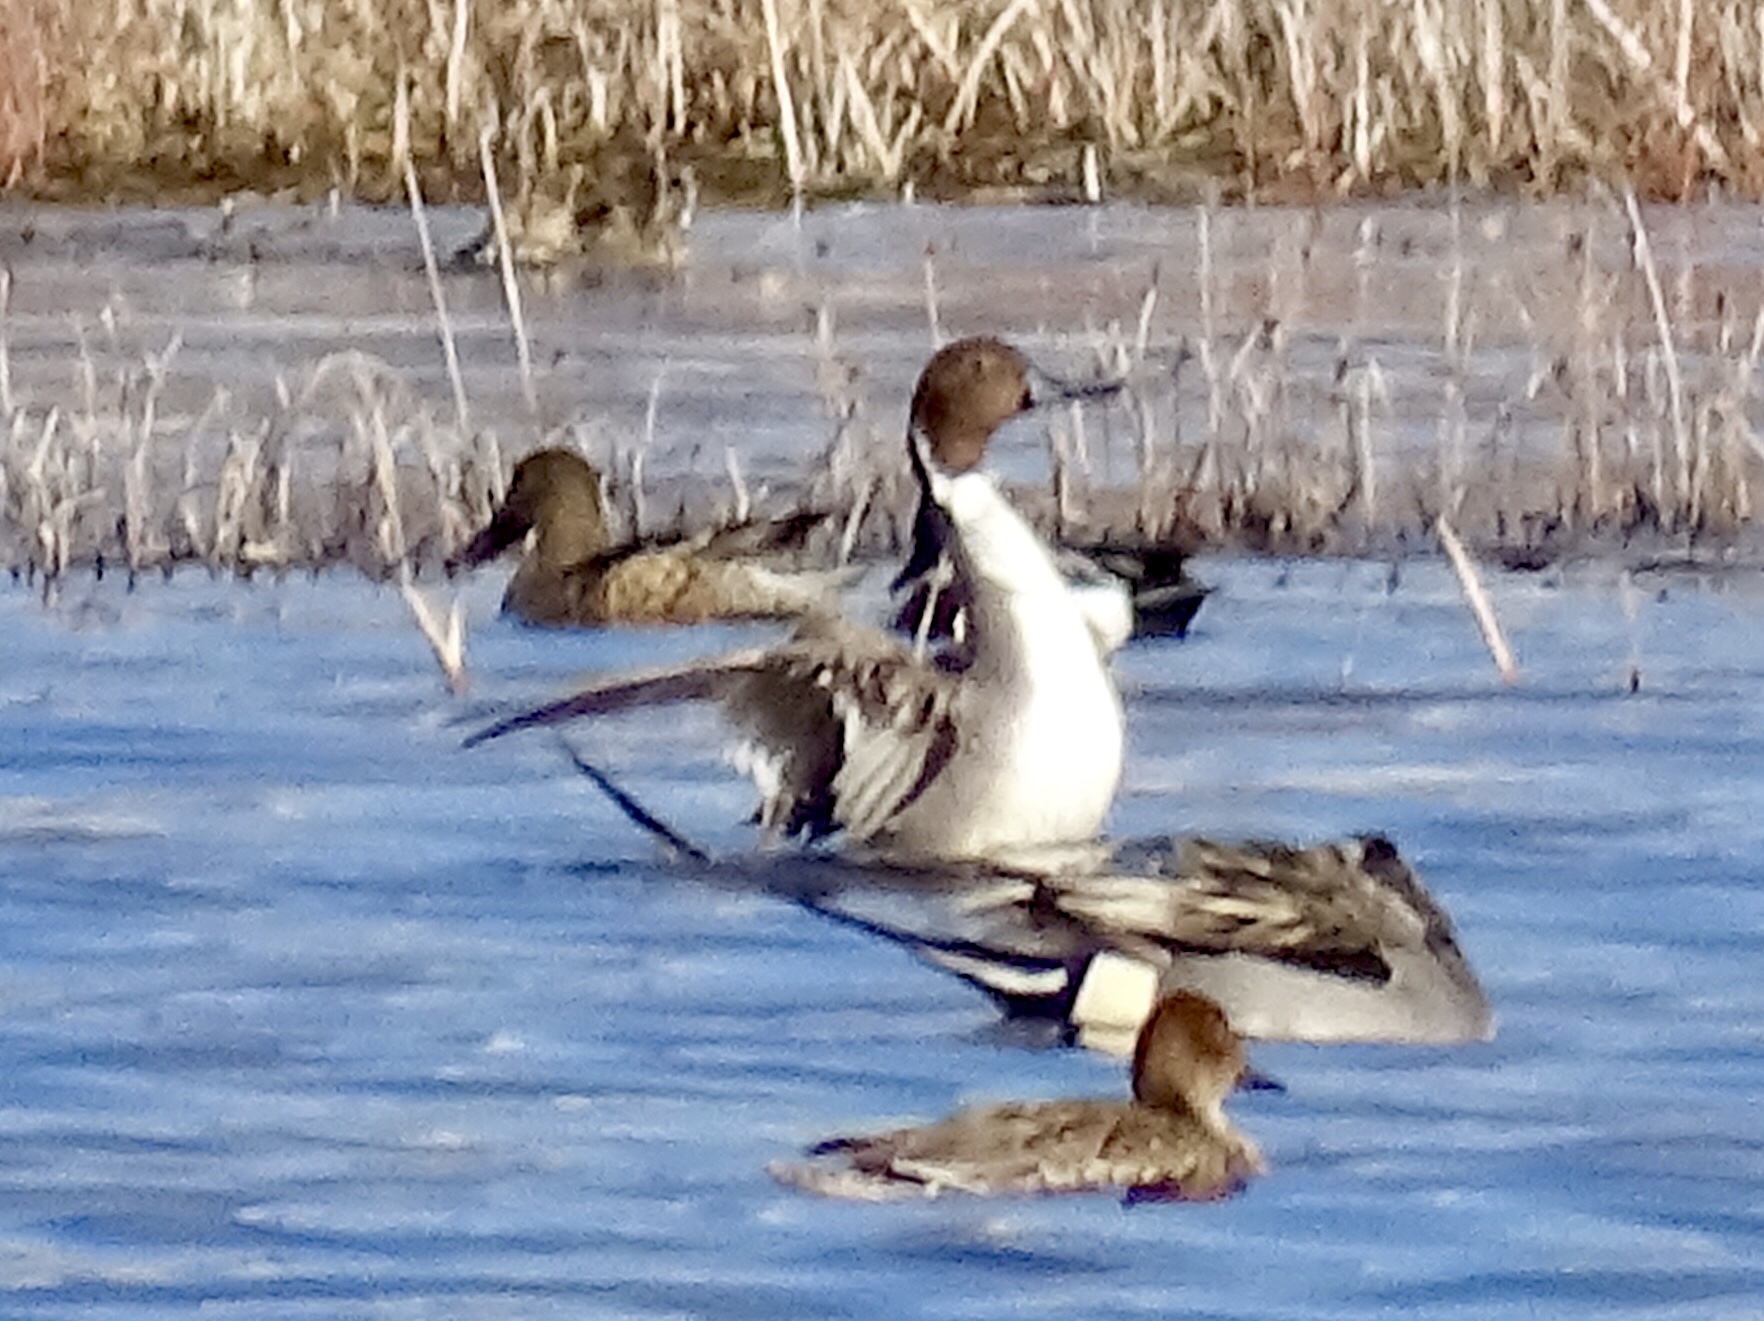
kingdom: Animalia
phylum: Chordata
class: Aves
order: Anseriformes
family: Anatidae
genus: Anas
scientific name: Anas acuta
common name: Northern pintail
